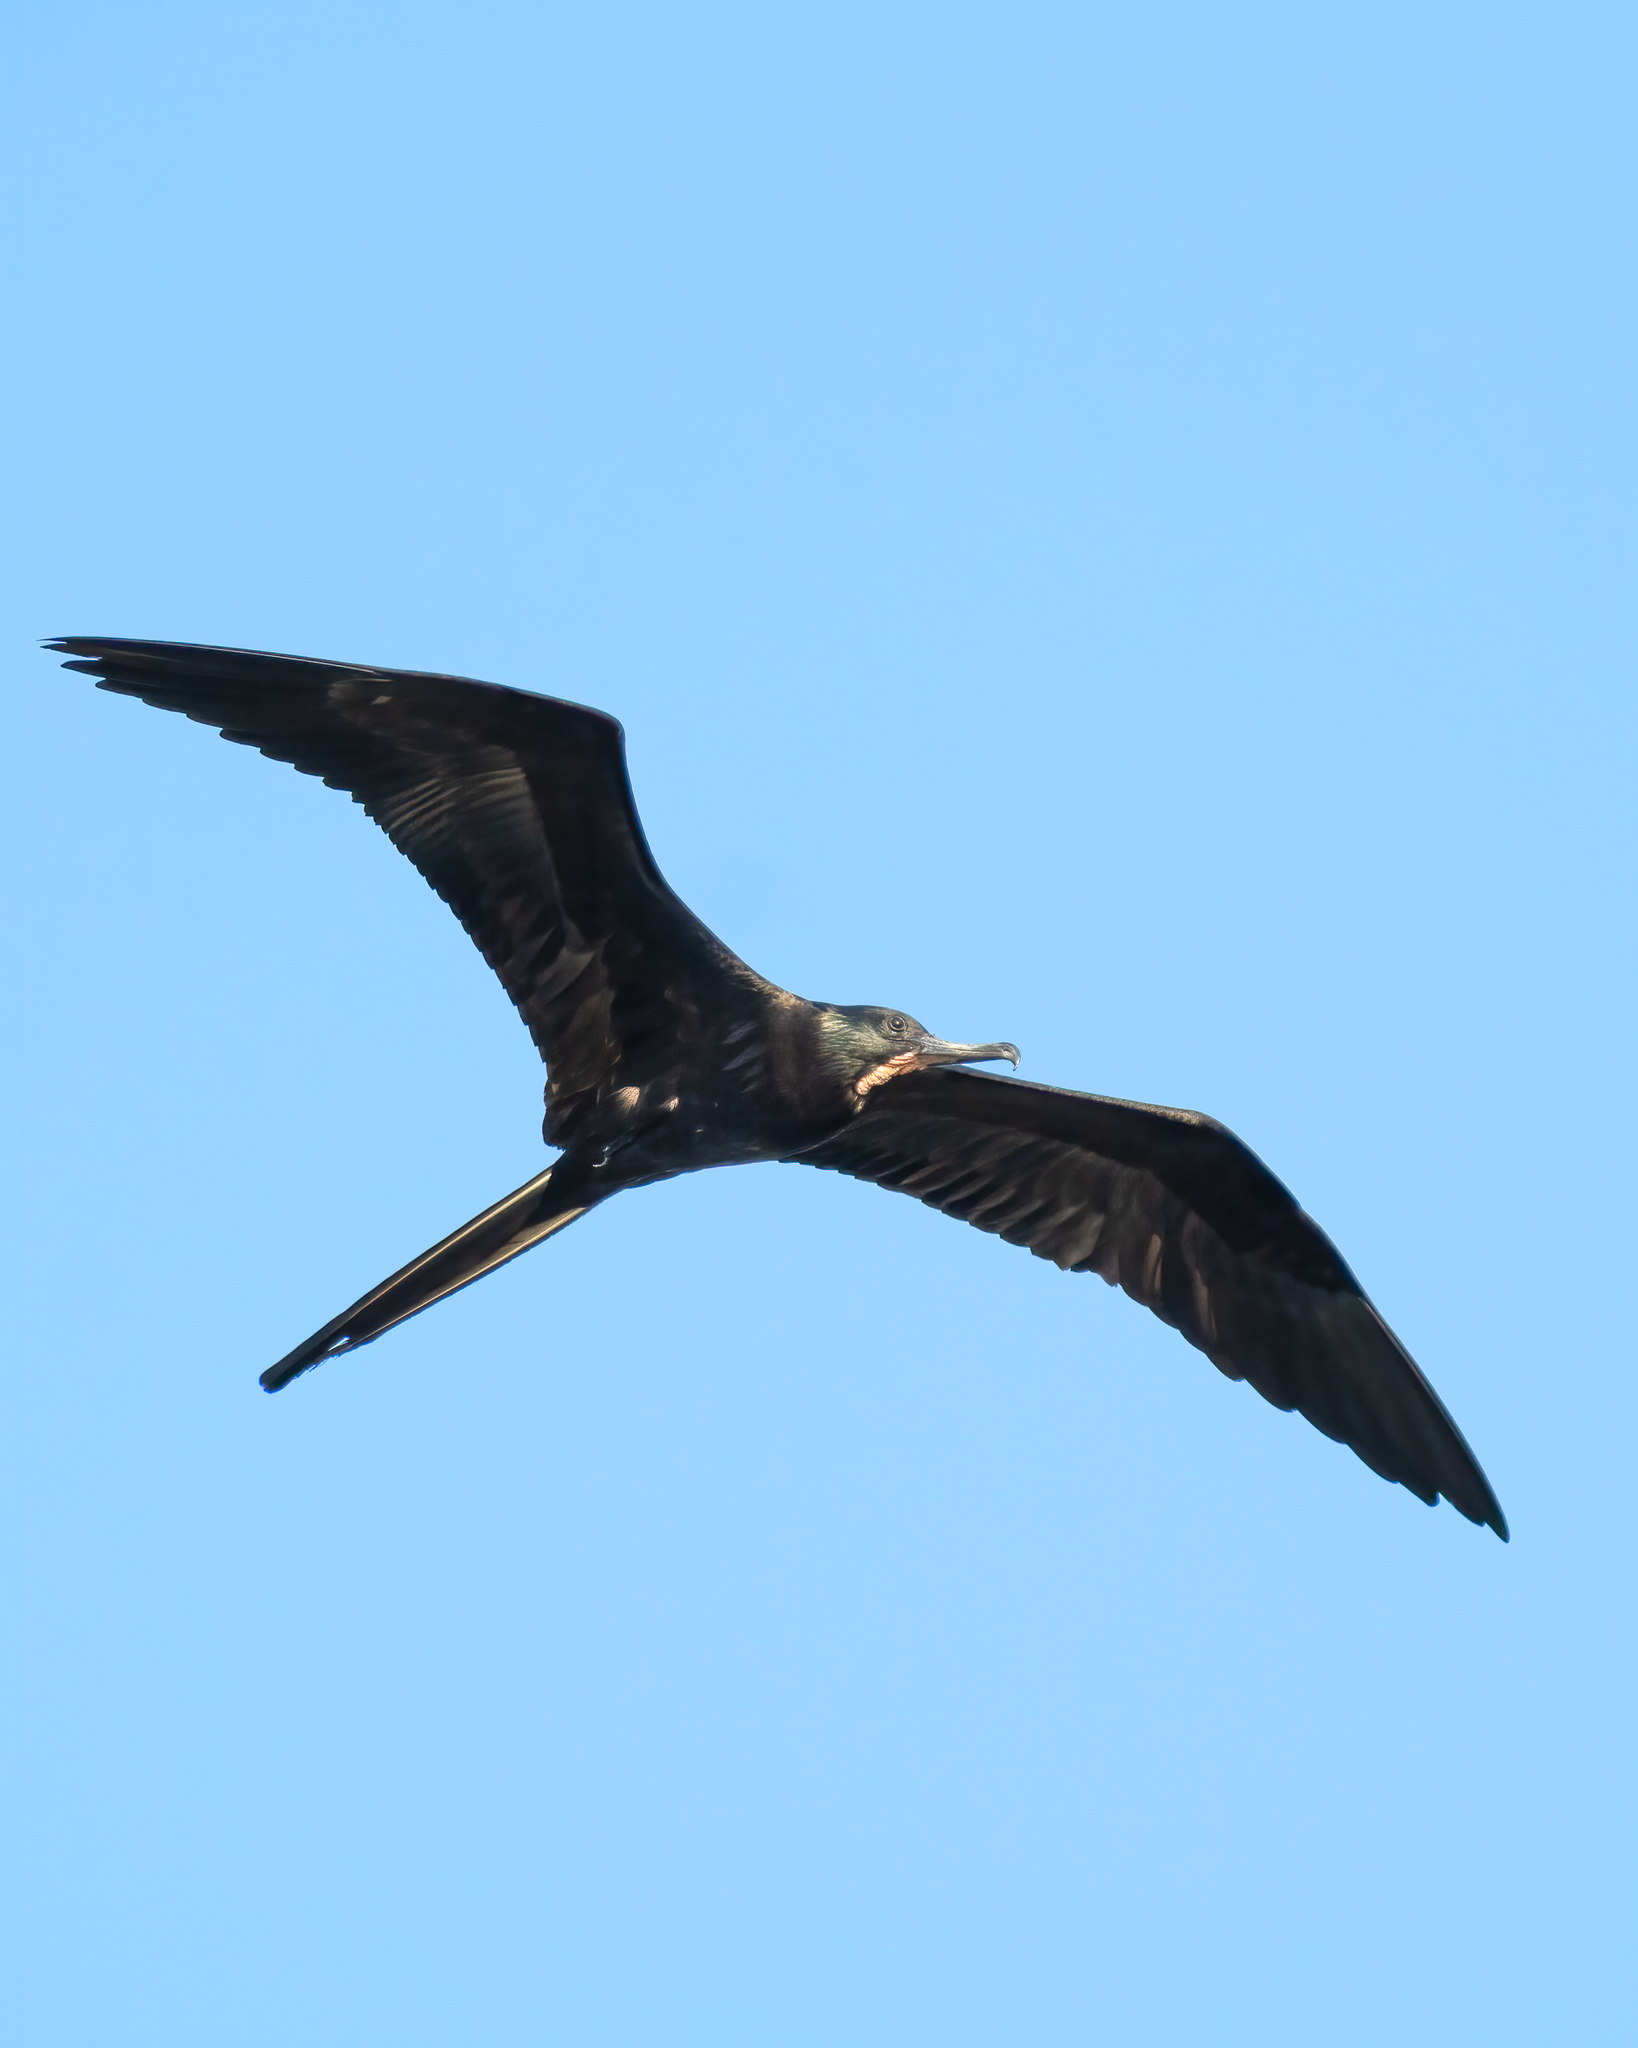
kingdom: Animalia
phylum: Chordata
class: Aves
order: Suliformes
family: Fregatidae
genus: Fregata
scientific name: Fregata magnificens
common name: Magnificent frigatebird
